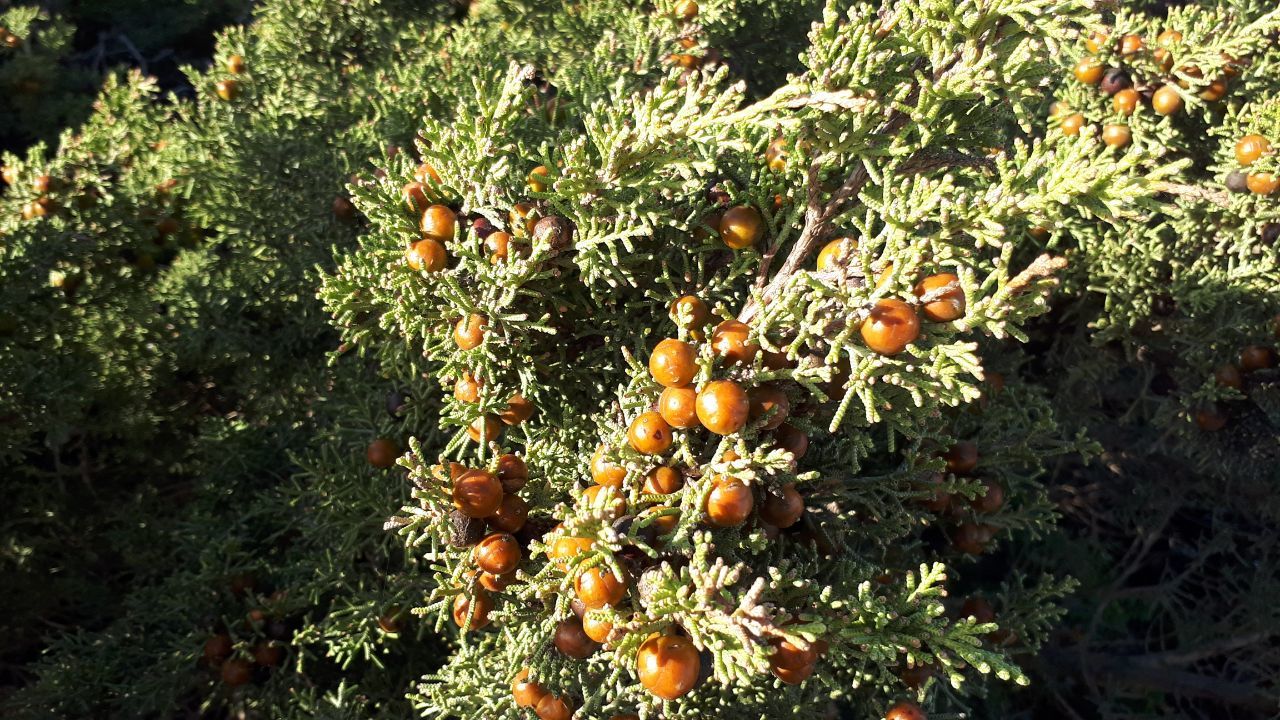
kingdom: Plantae
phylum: Tracheophyta
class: Pinopsida
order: Pinales
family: Cupressaceae
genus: Juniperus
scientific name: Juniperus phoenicea
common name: Phoenician juniper
